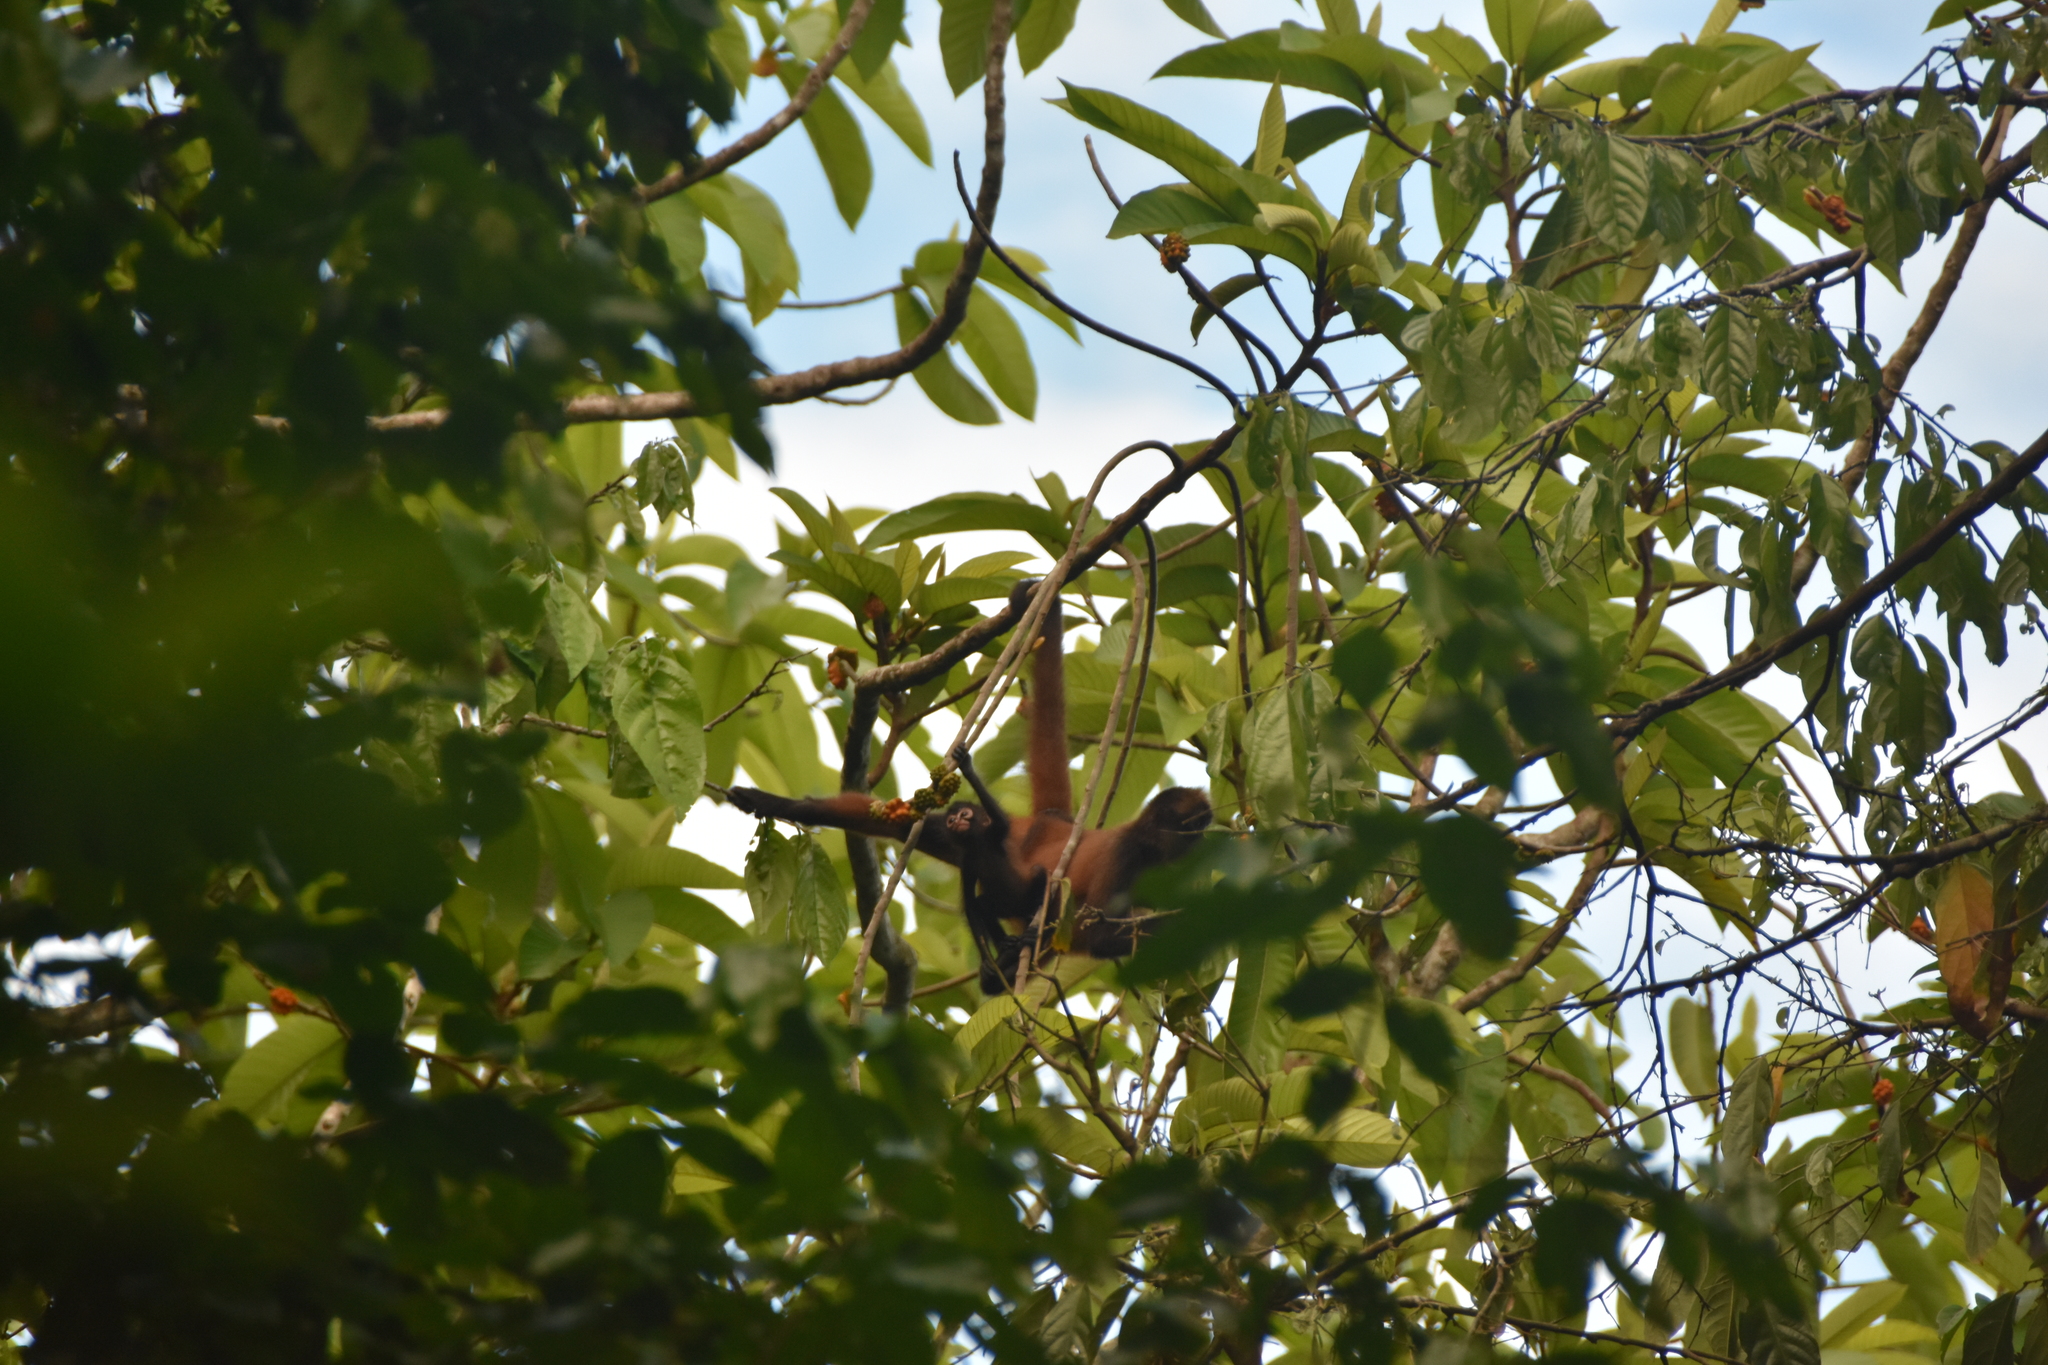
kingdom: Animalia
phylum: Chordata
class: Mammalia
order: Primates
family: Atelidae
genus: Ateles
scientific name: Ateles geoffroyi
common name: Black-handed spider monkey
